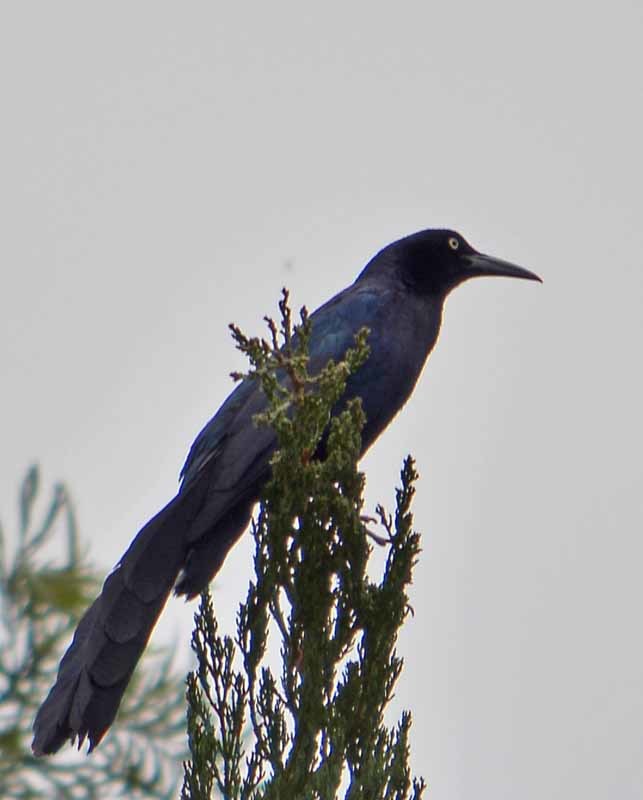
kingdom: Animalia
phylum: Chordata
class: Aves
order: Passeriformes
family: Icteridae
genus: Quiscalus
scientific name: Quiscalus mexicanus
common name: Great-tailed grackle
